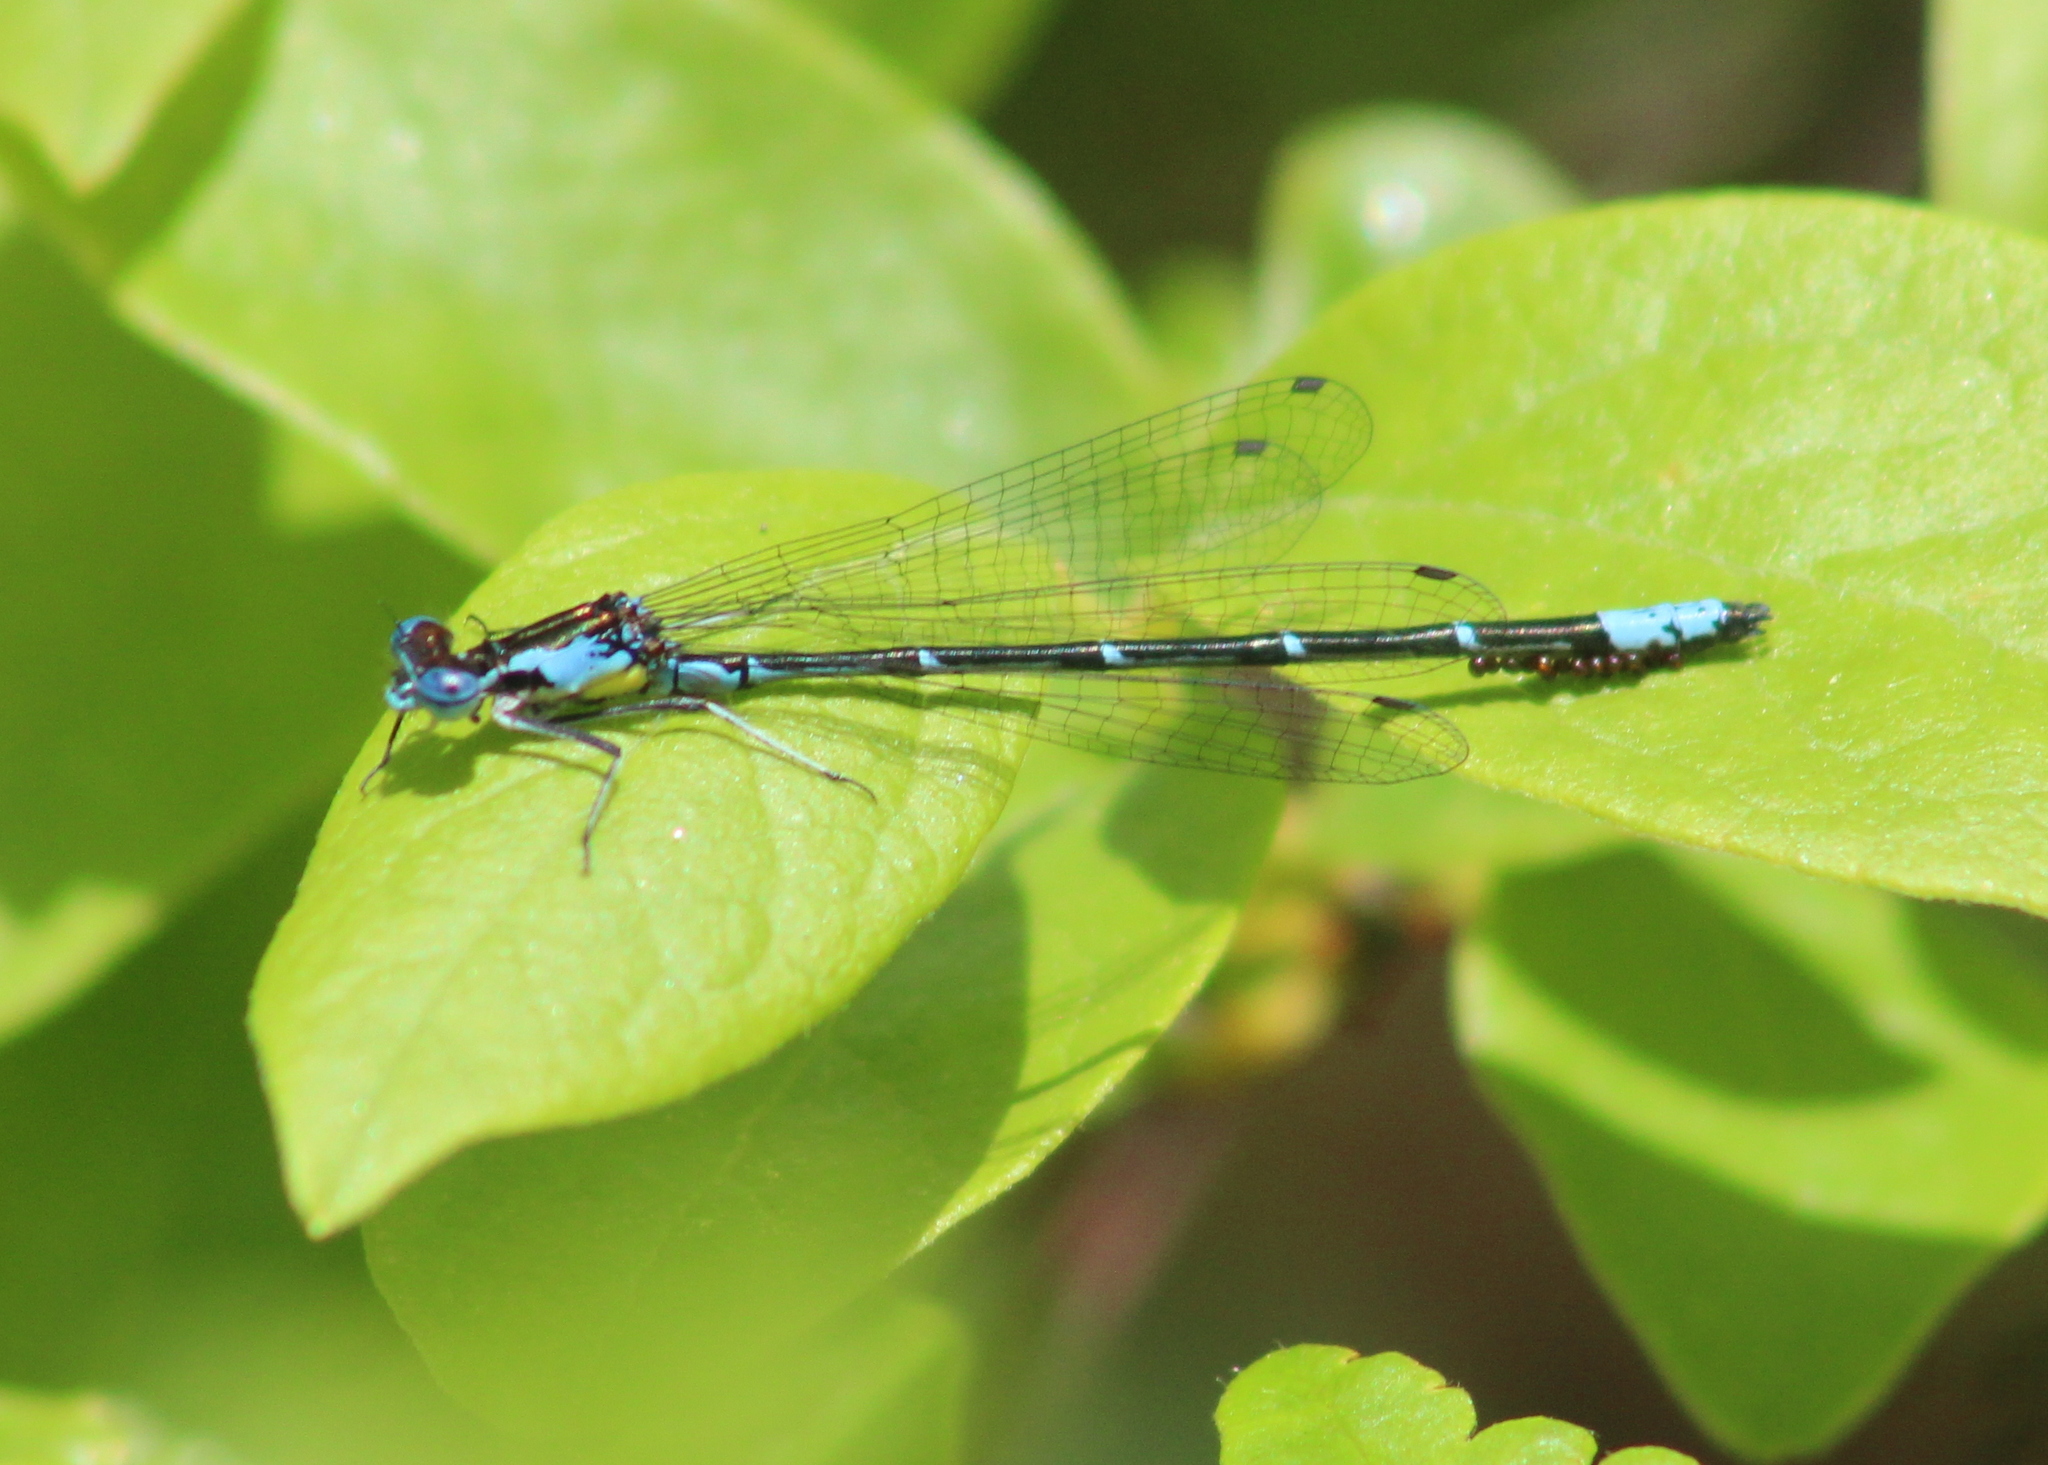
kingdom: Animalia
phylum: Arthropoda
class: Insecta
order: Odonata
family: Coenagrionidae
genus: Chromagrion
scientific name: Chromagrion conditum
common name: Aurora damsel
